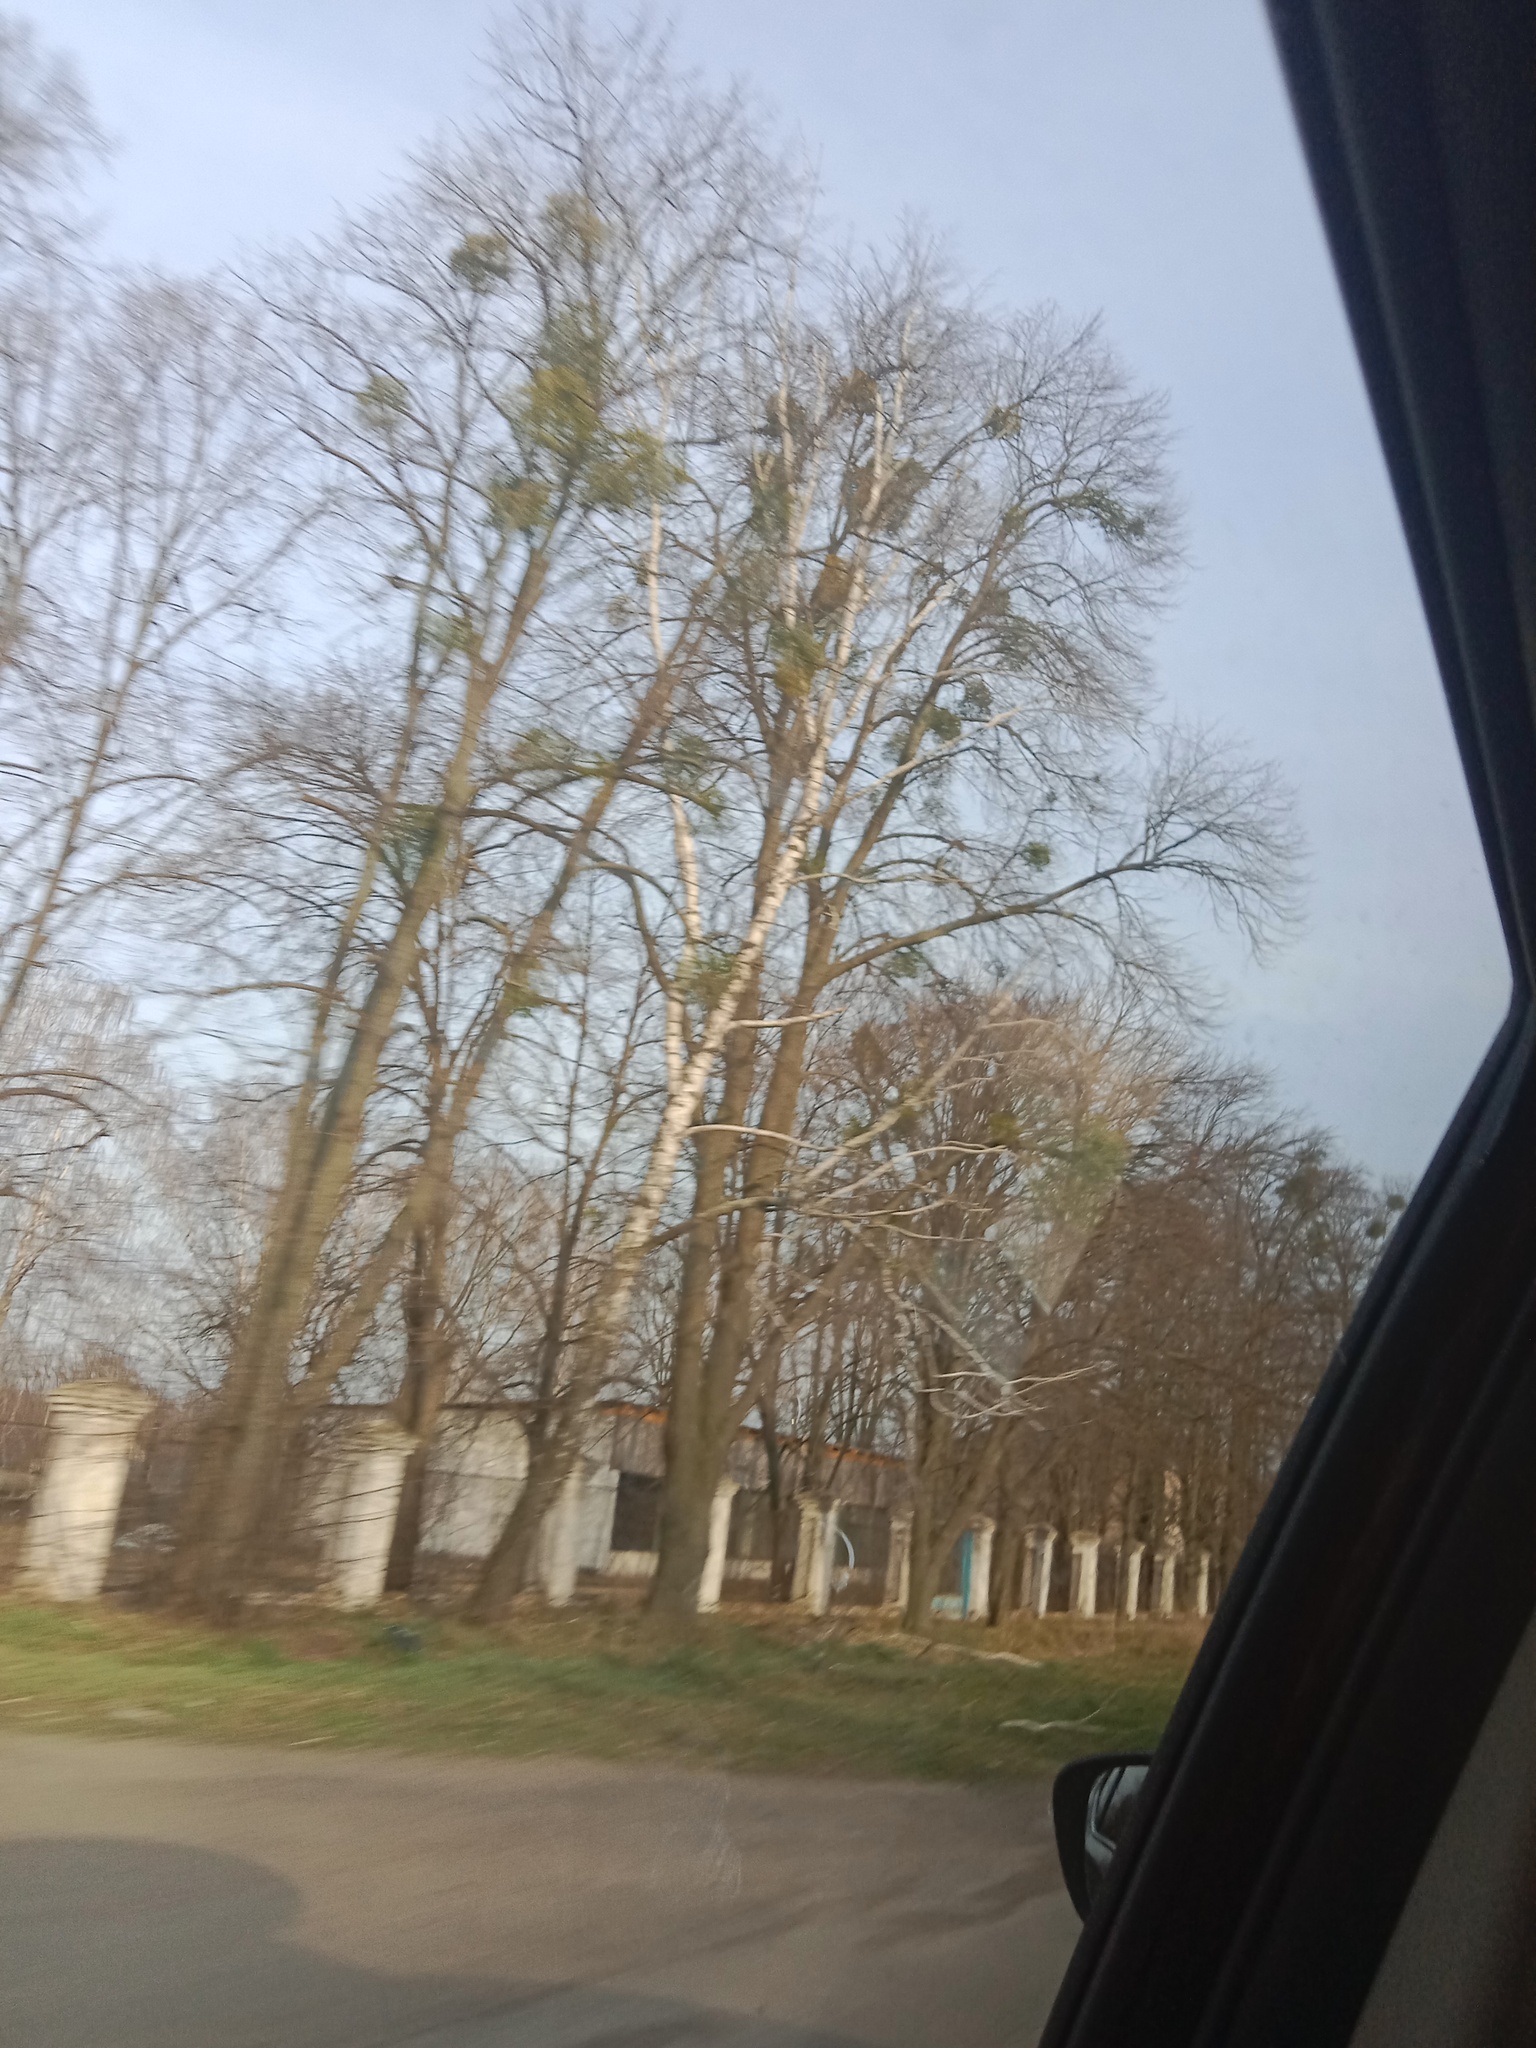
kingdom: Plantae
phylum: Tracheophyta
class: Magnoliopsida
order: Santalales
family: Viscaceae
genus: Viscum
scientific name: Viscum album
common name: Mistletoe
